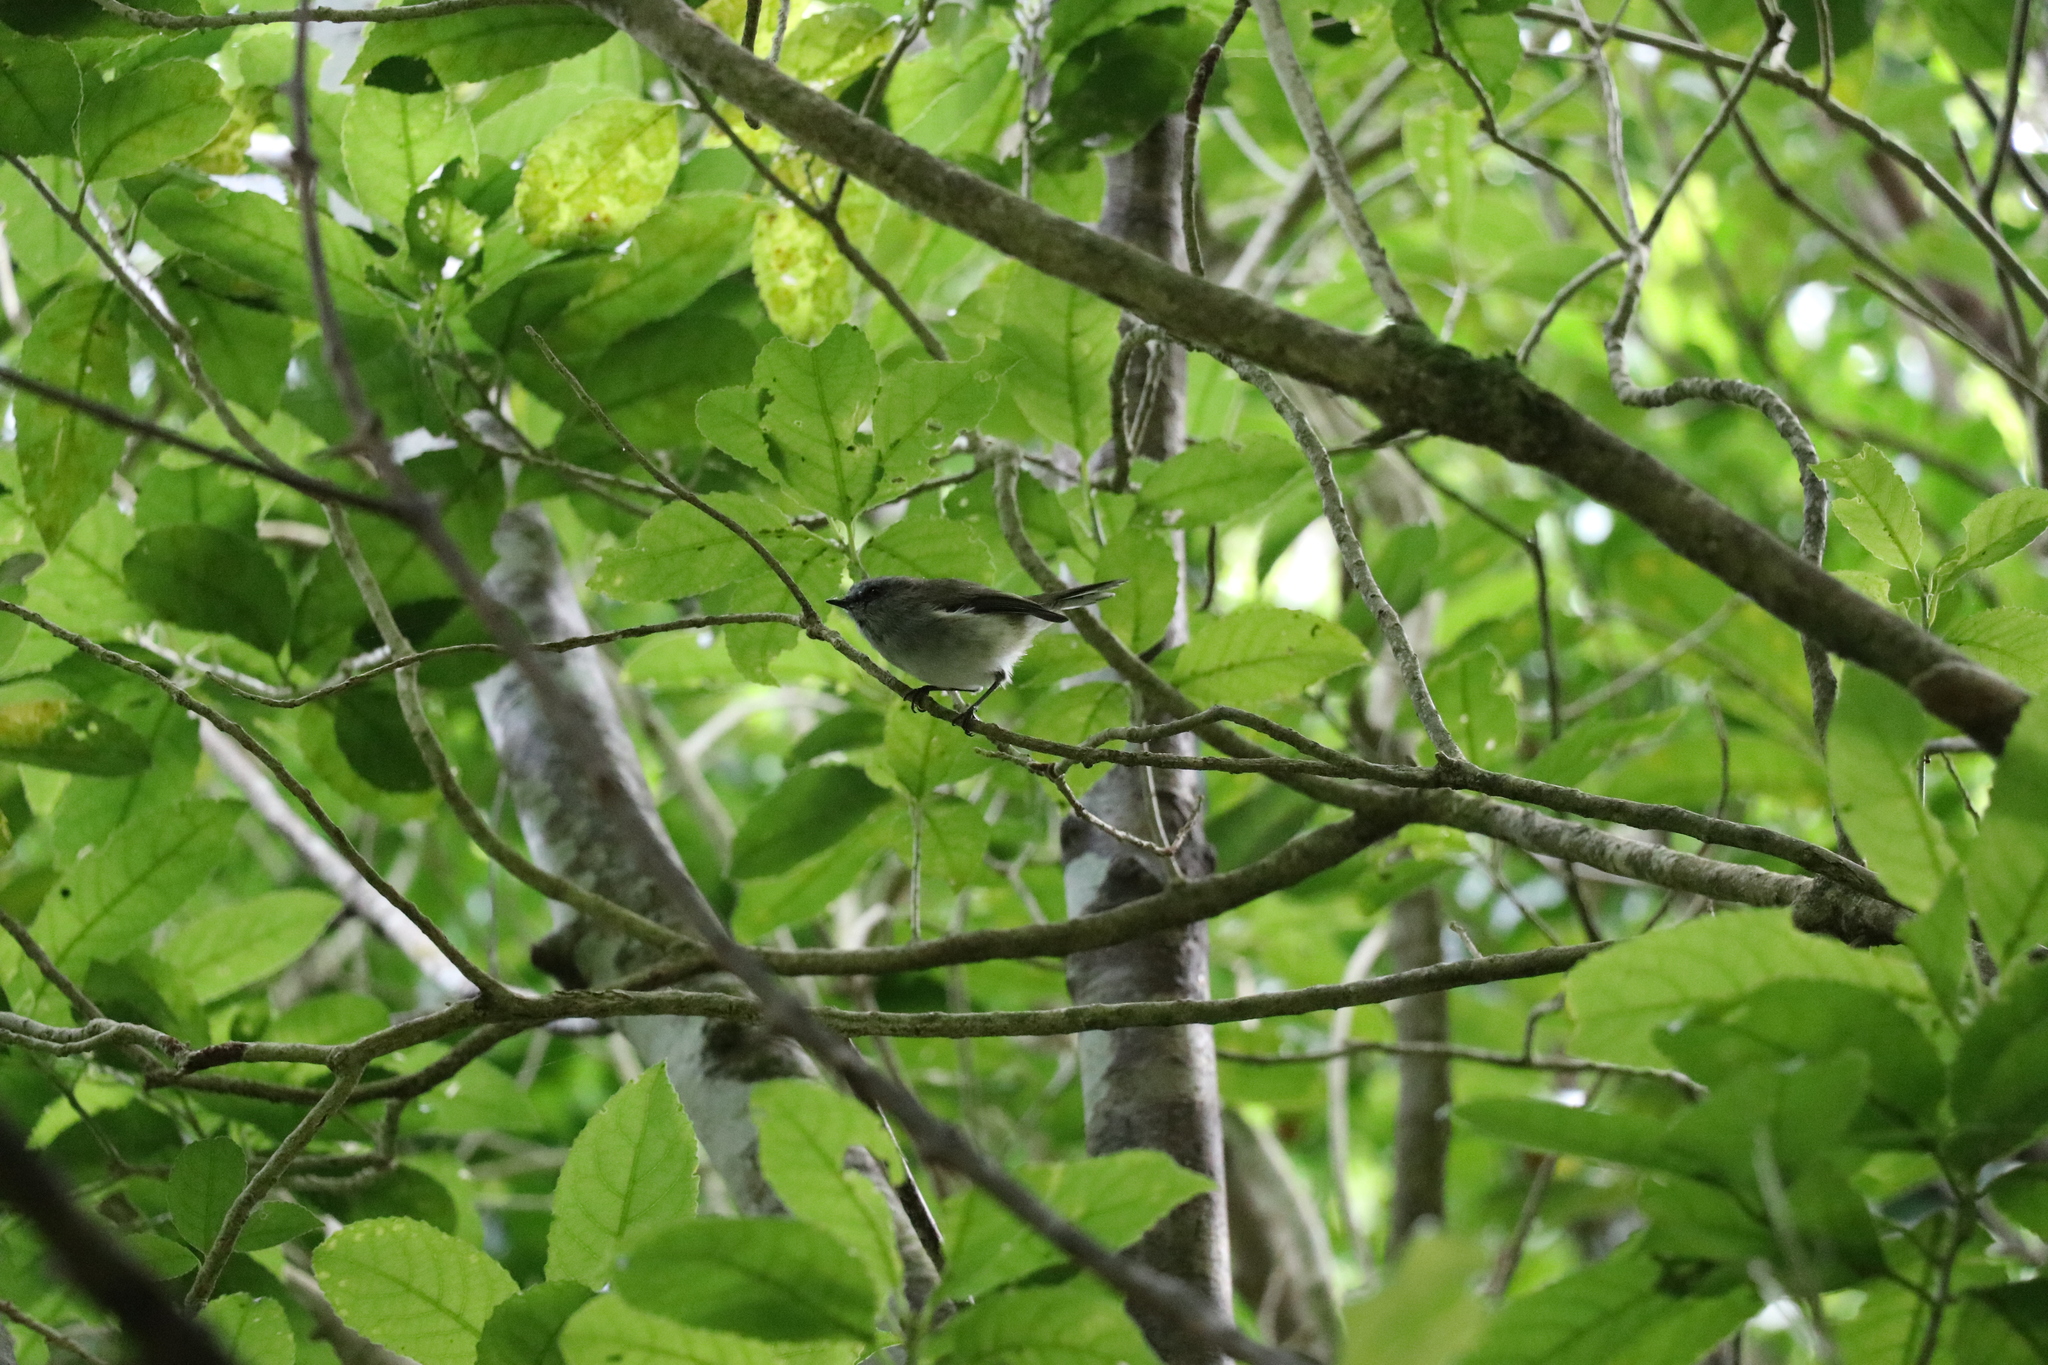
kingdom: Animalia
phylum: Chordata
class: Aves
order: Passeriformes
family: Acanthizidae
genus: Gerygone
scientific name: Gerygone igata
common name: Grey gerygone
